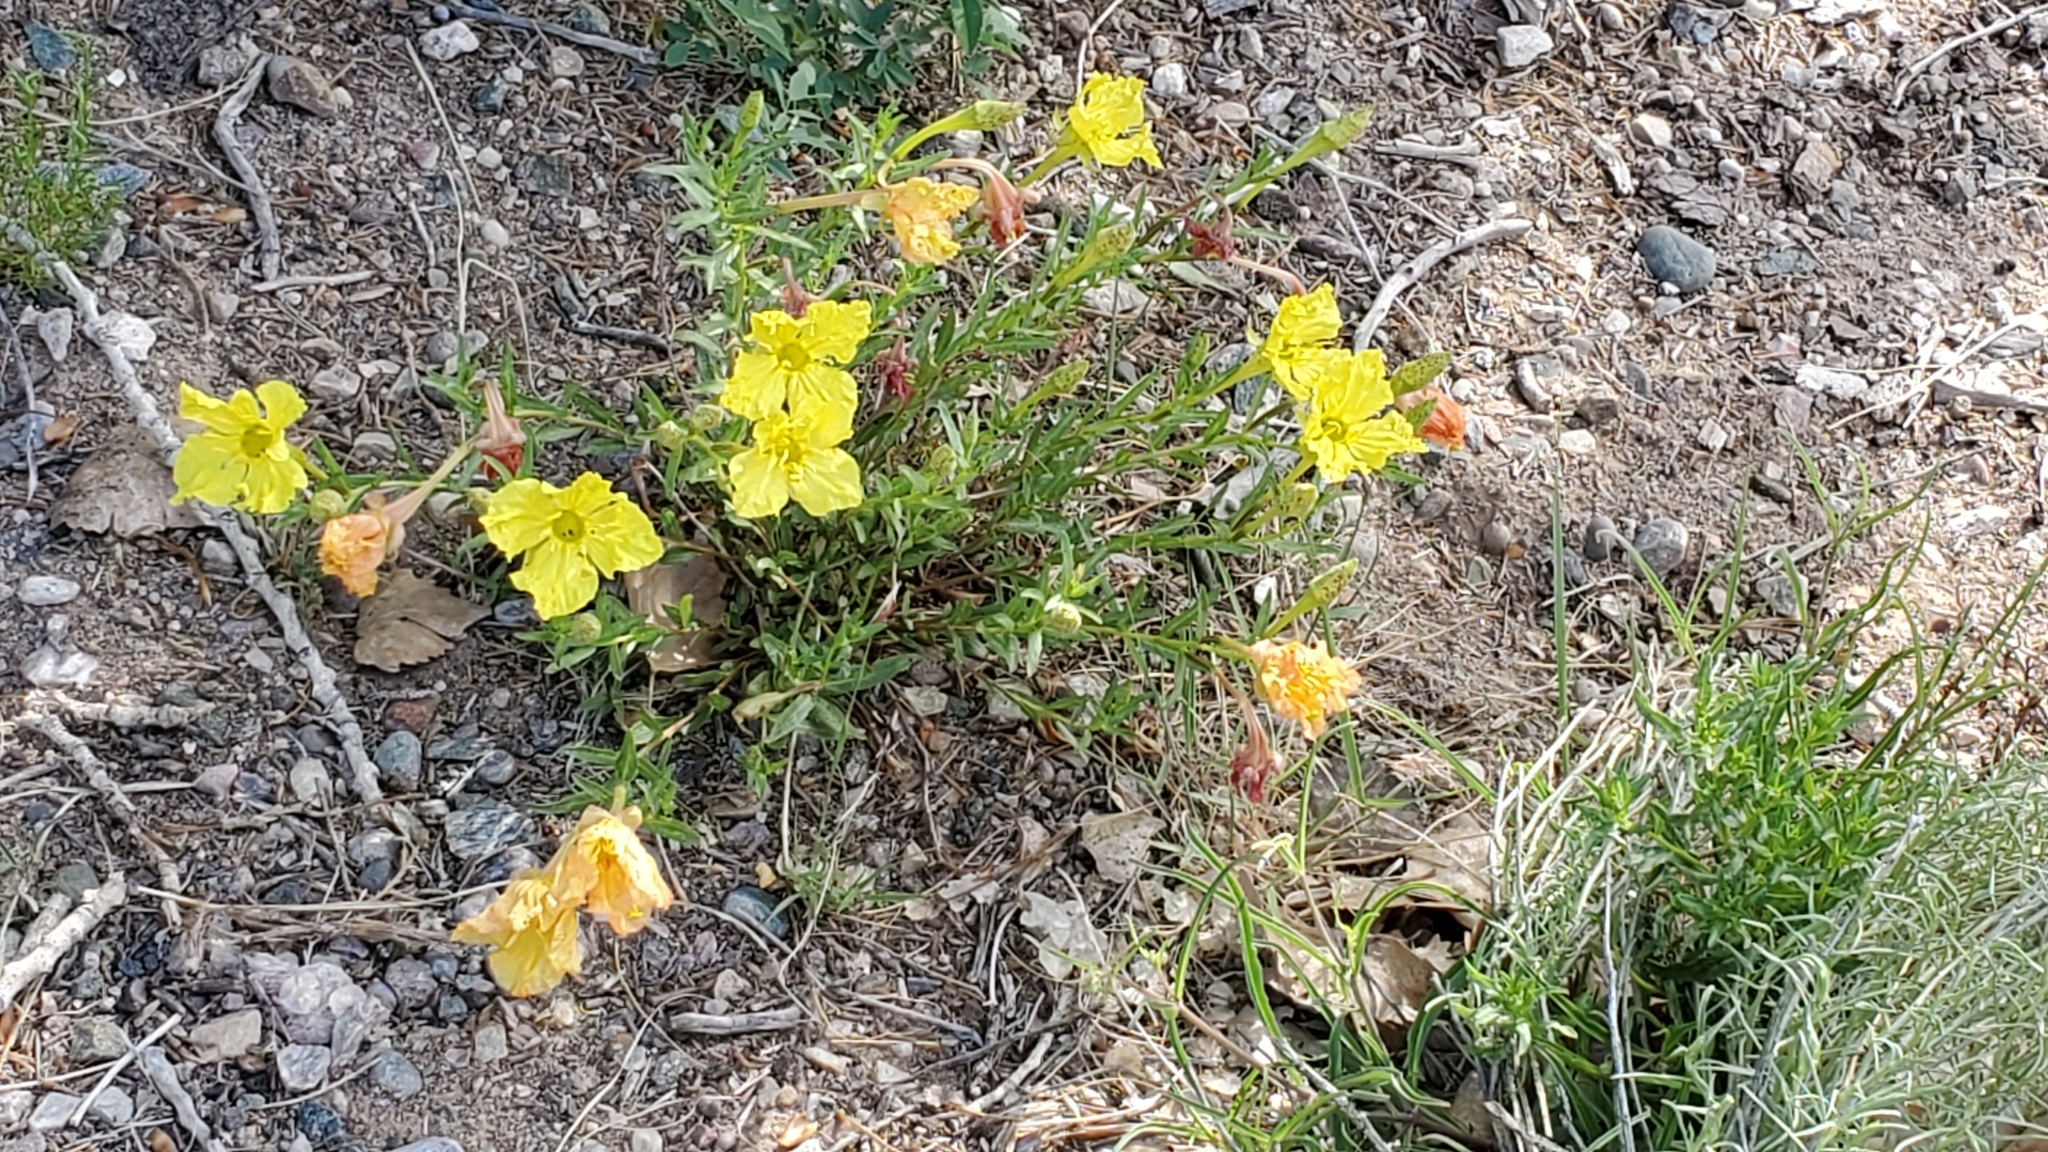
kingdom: Plantae
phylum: Tracheophyta
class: Magnoliopsida
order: Myrtales
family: Onagraceae
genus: Oenothera
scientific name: Oenothera hartwegii
